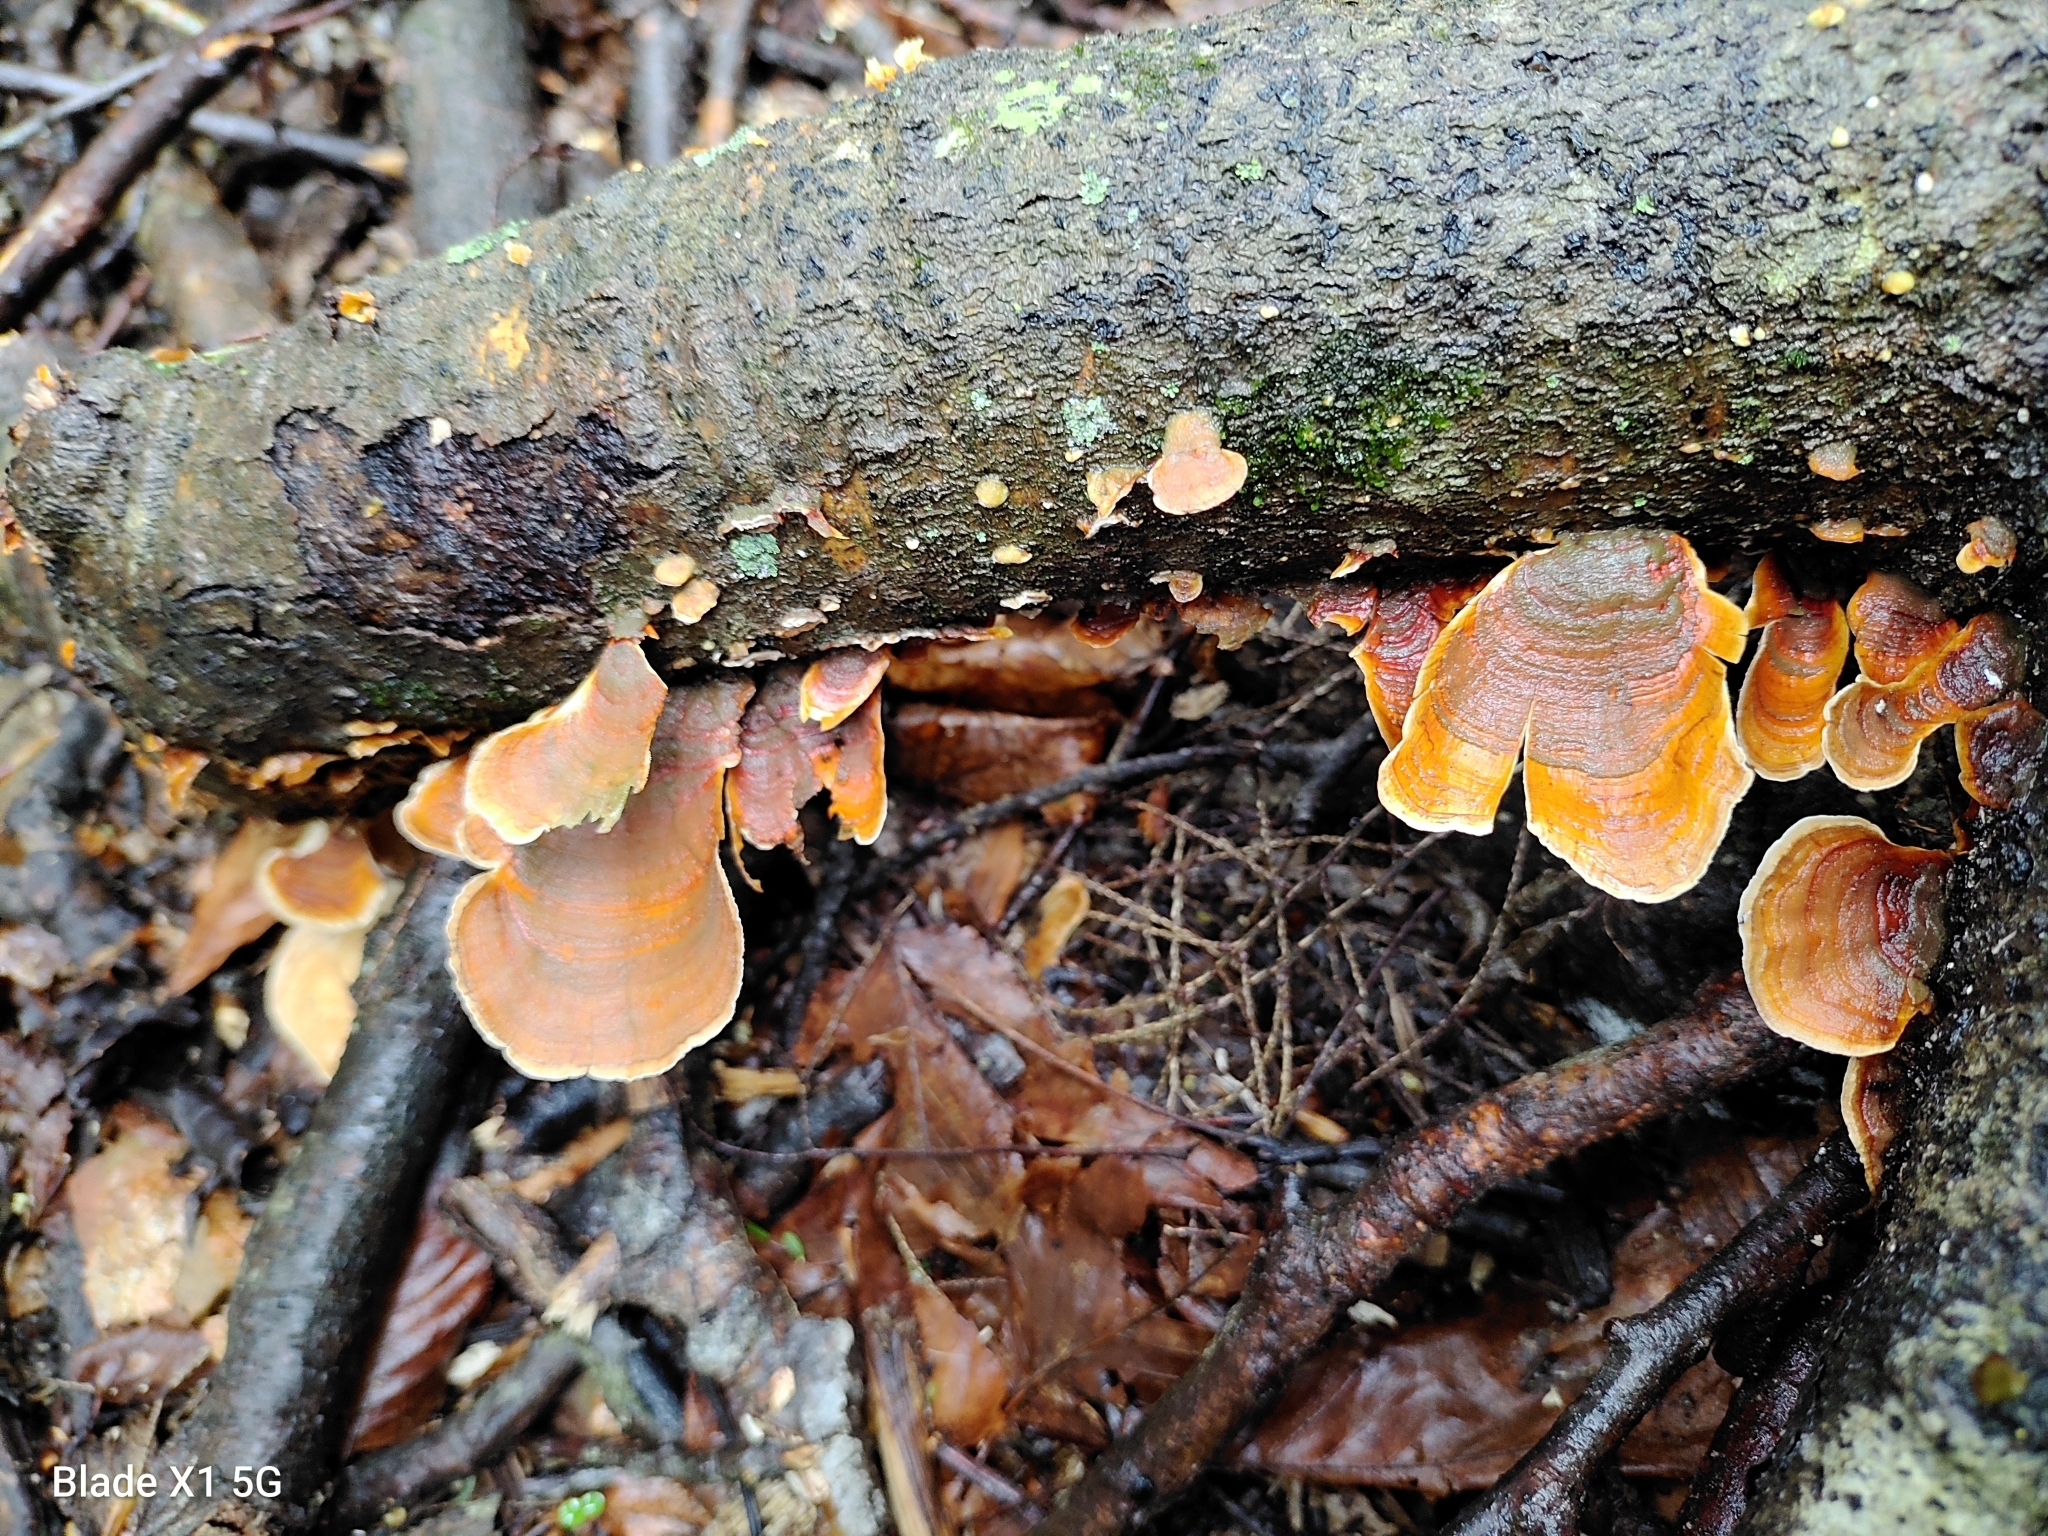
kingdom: Fungi
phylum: Basidiomycota
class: Agaricomycetes
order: Russulales
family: Stereaceae
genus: Stereum
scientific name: Stereum lobatum
